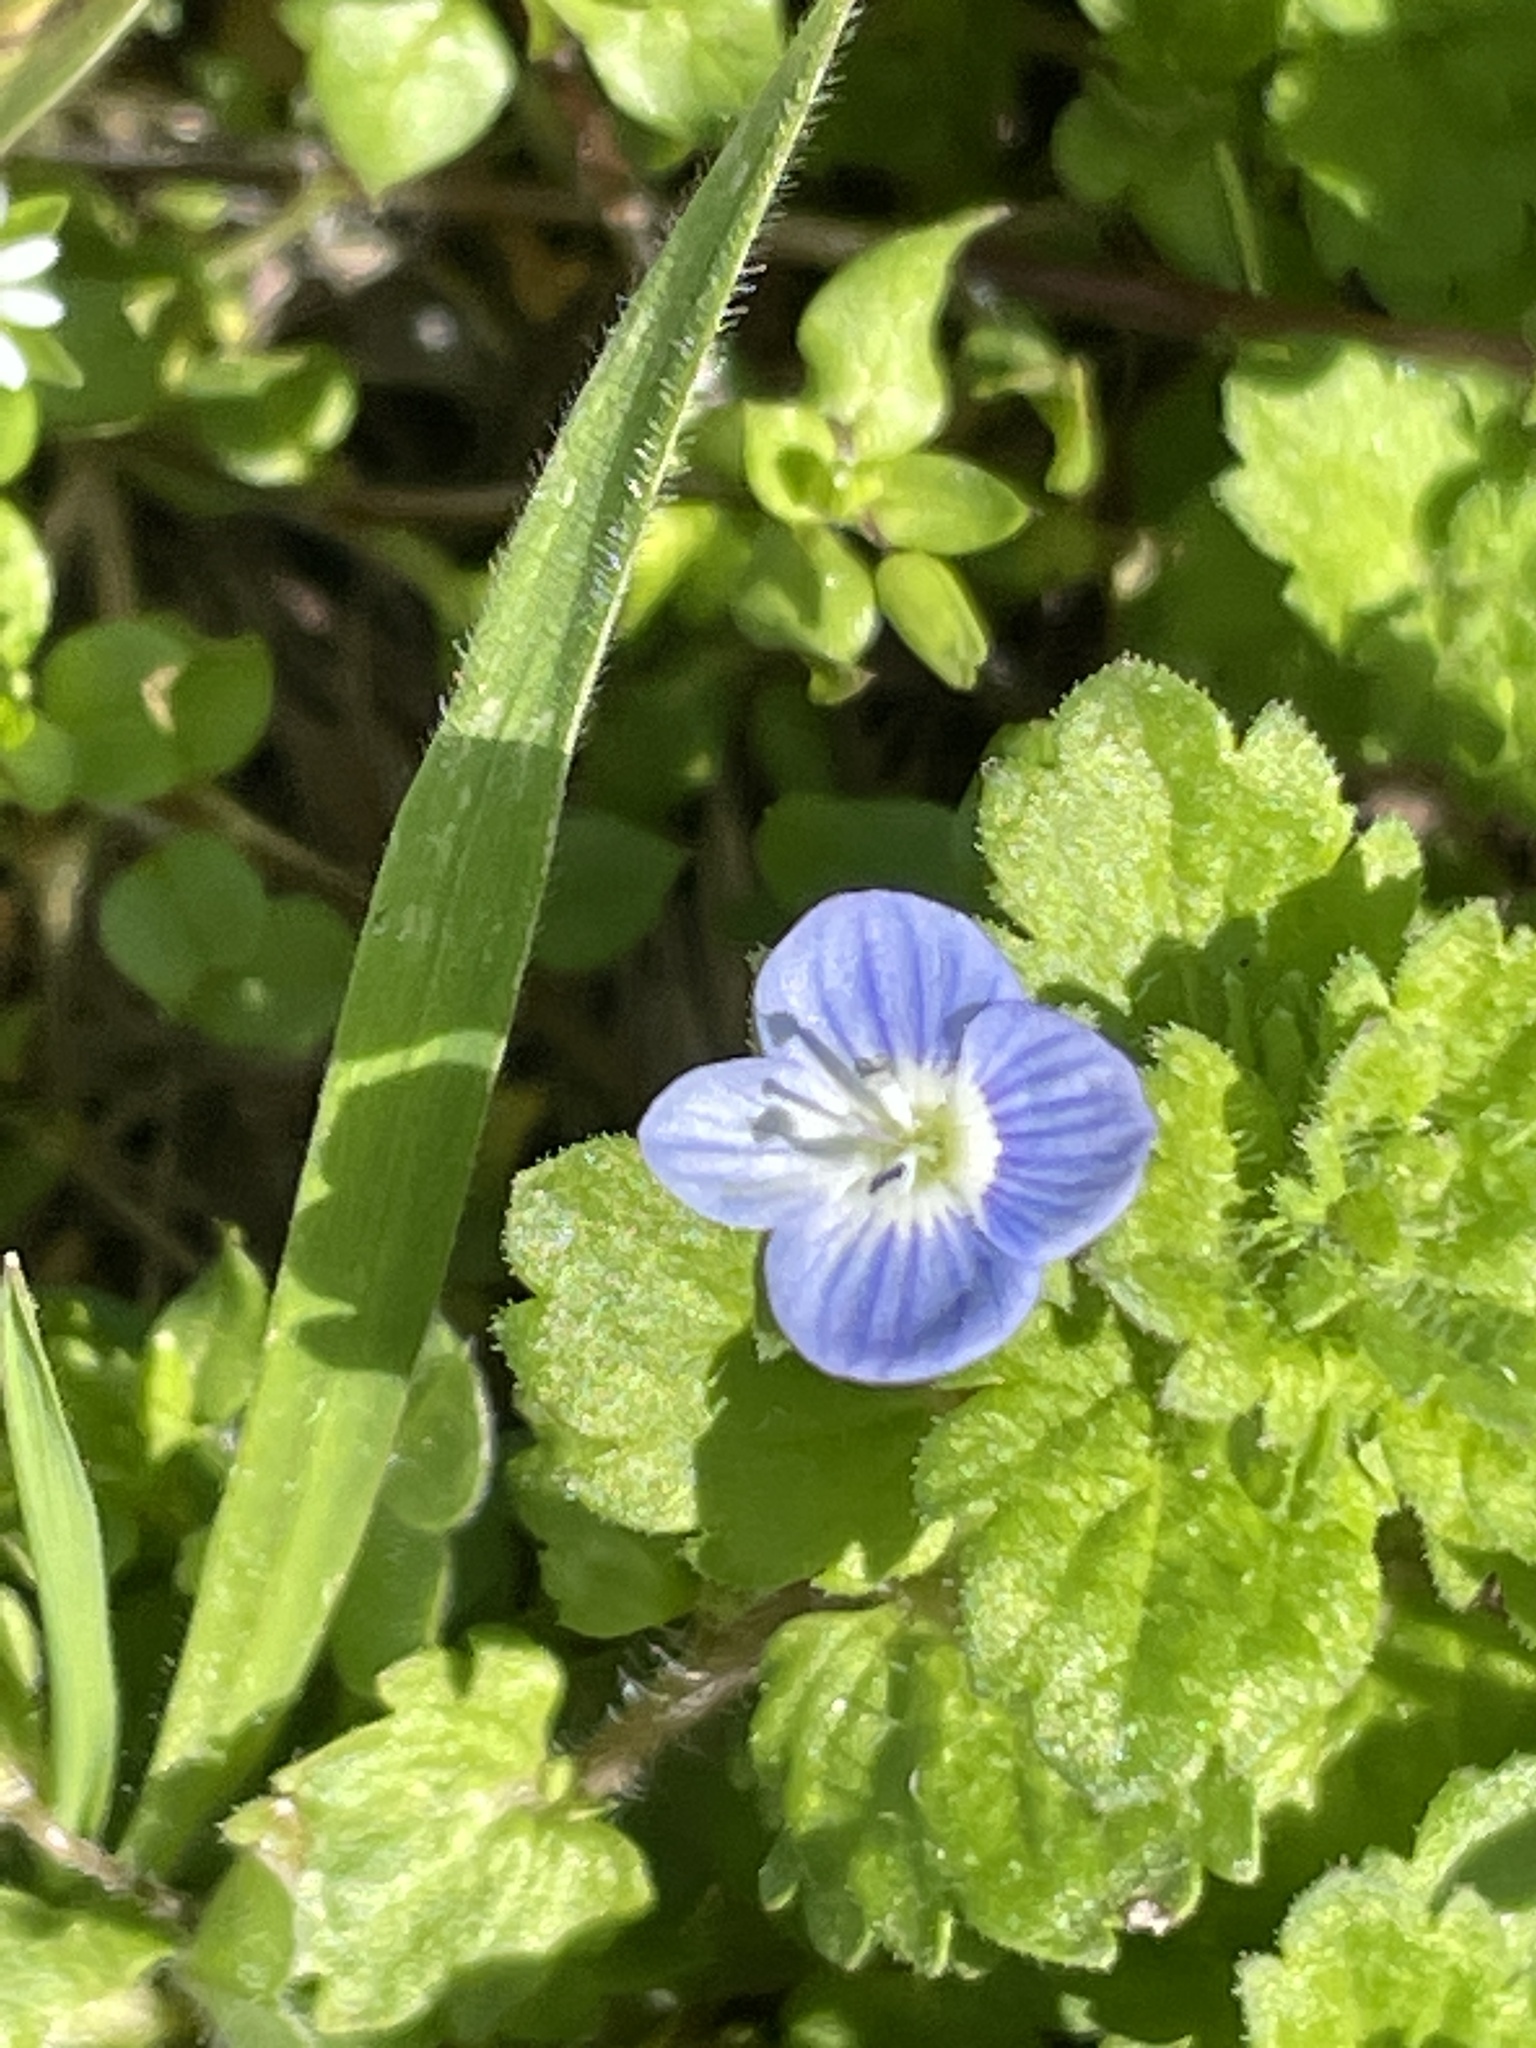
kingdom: Plantae
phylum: Tracheophyta
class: Magnoliopsida
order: Lamiales
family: Plantaginaceae
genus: Veronica
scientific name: Veronica persica
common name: Common field-speedwell
